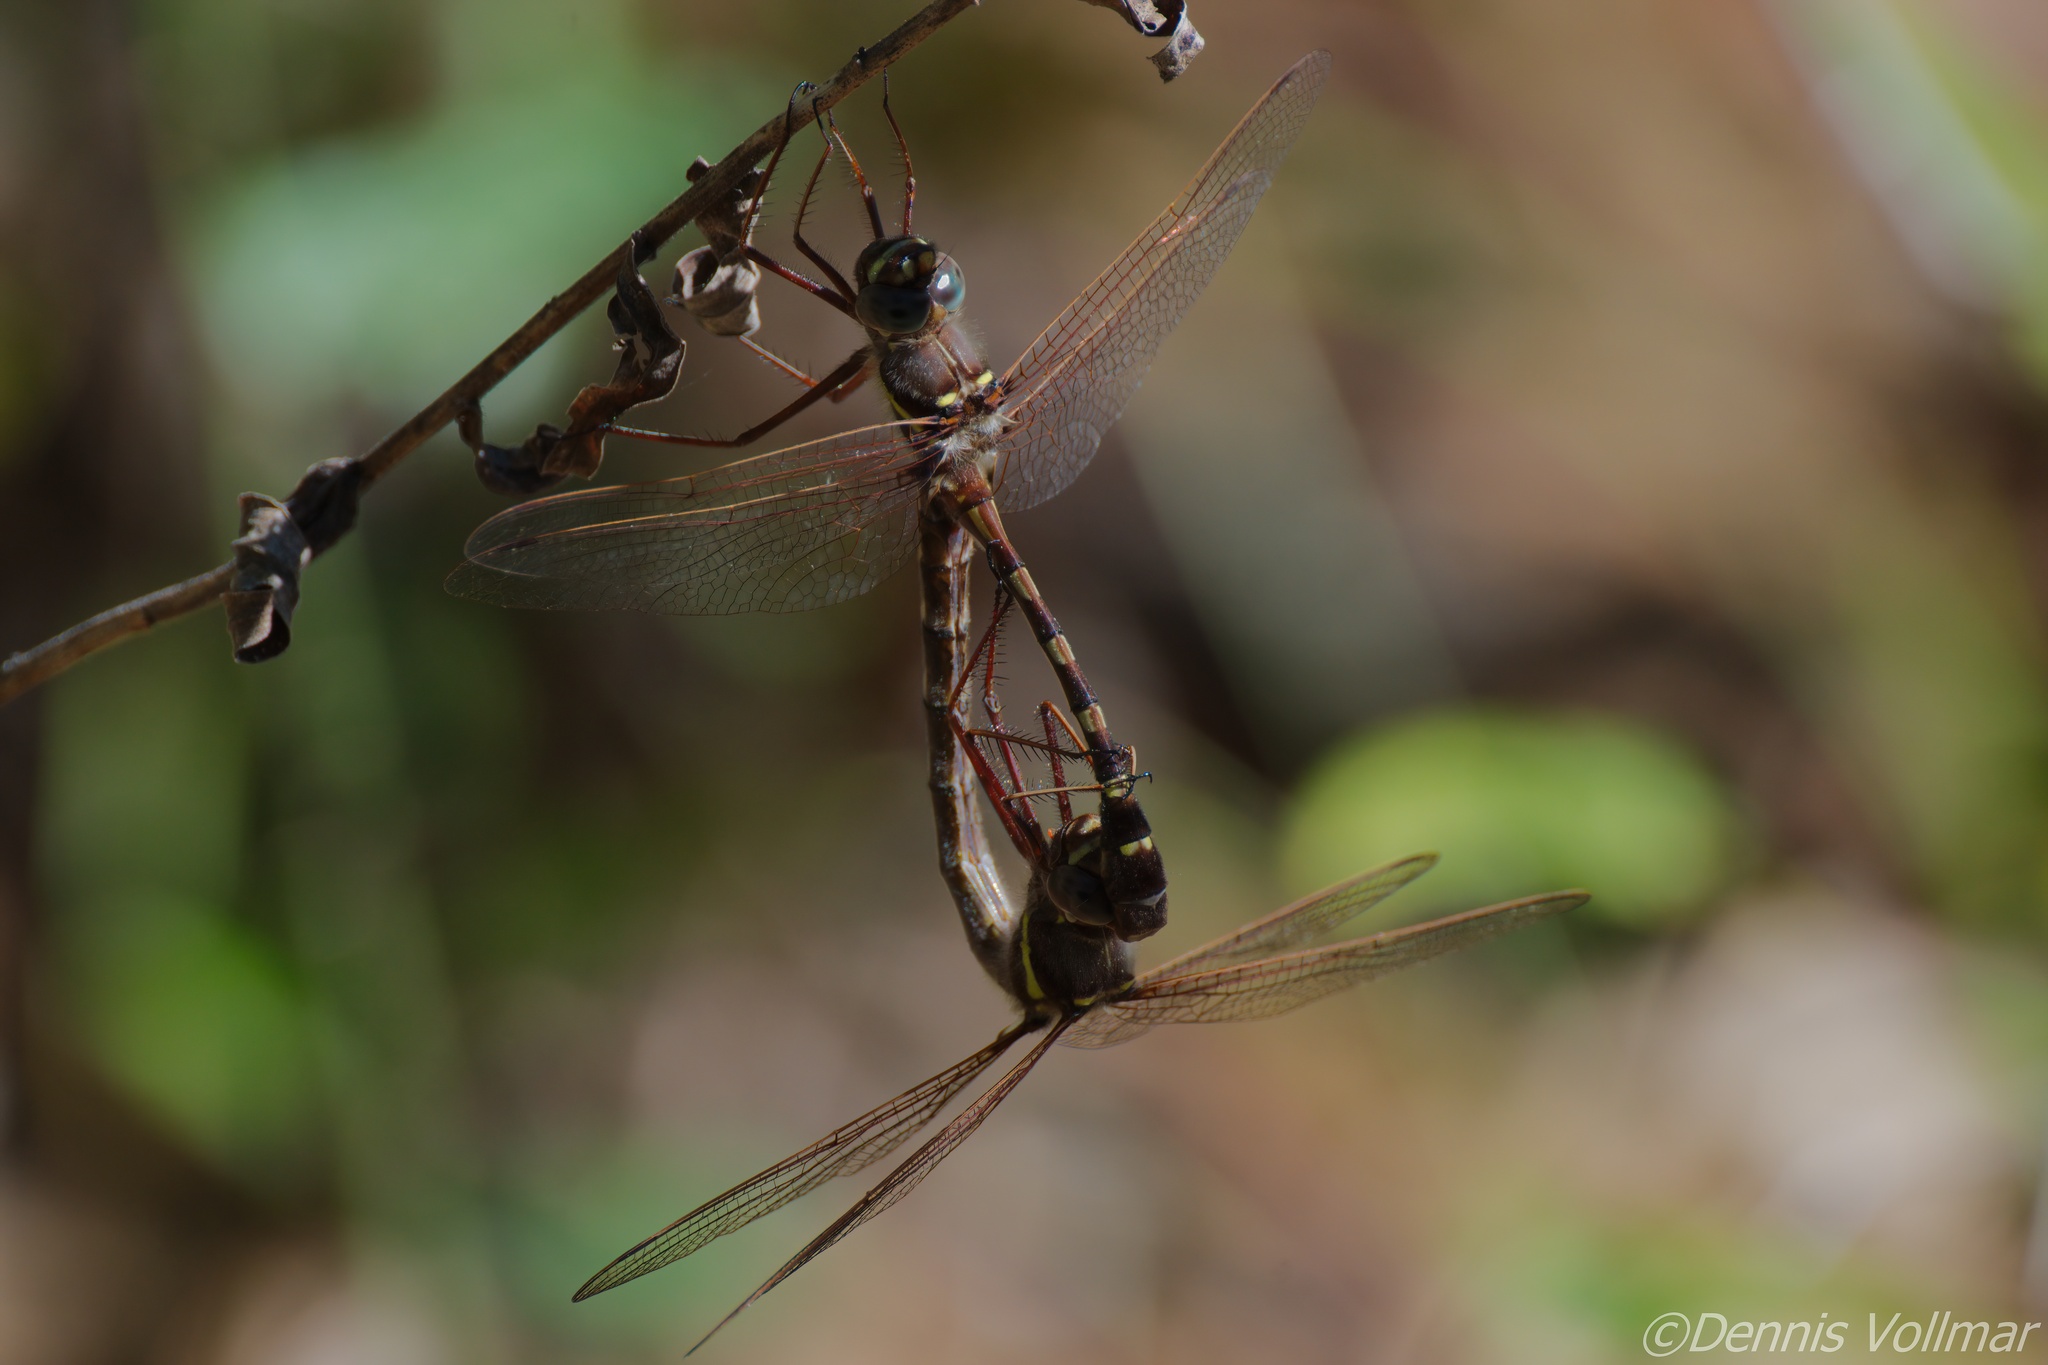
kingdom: Animalia
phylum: Arthropoda
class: Insecta
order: Odonata
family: Macromiidae
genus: Didymops
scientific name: Didymops transversa
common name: Stream cruiser
